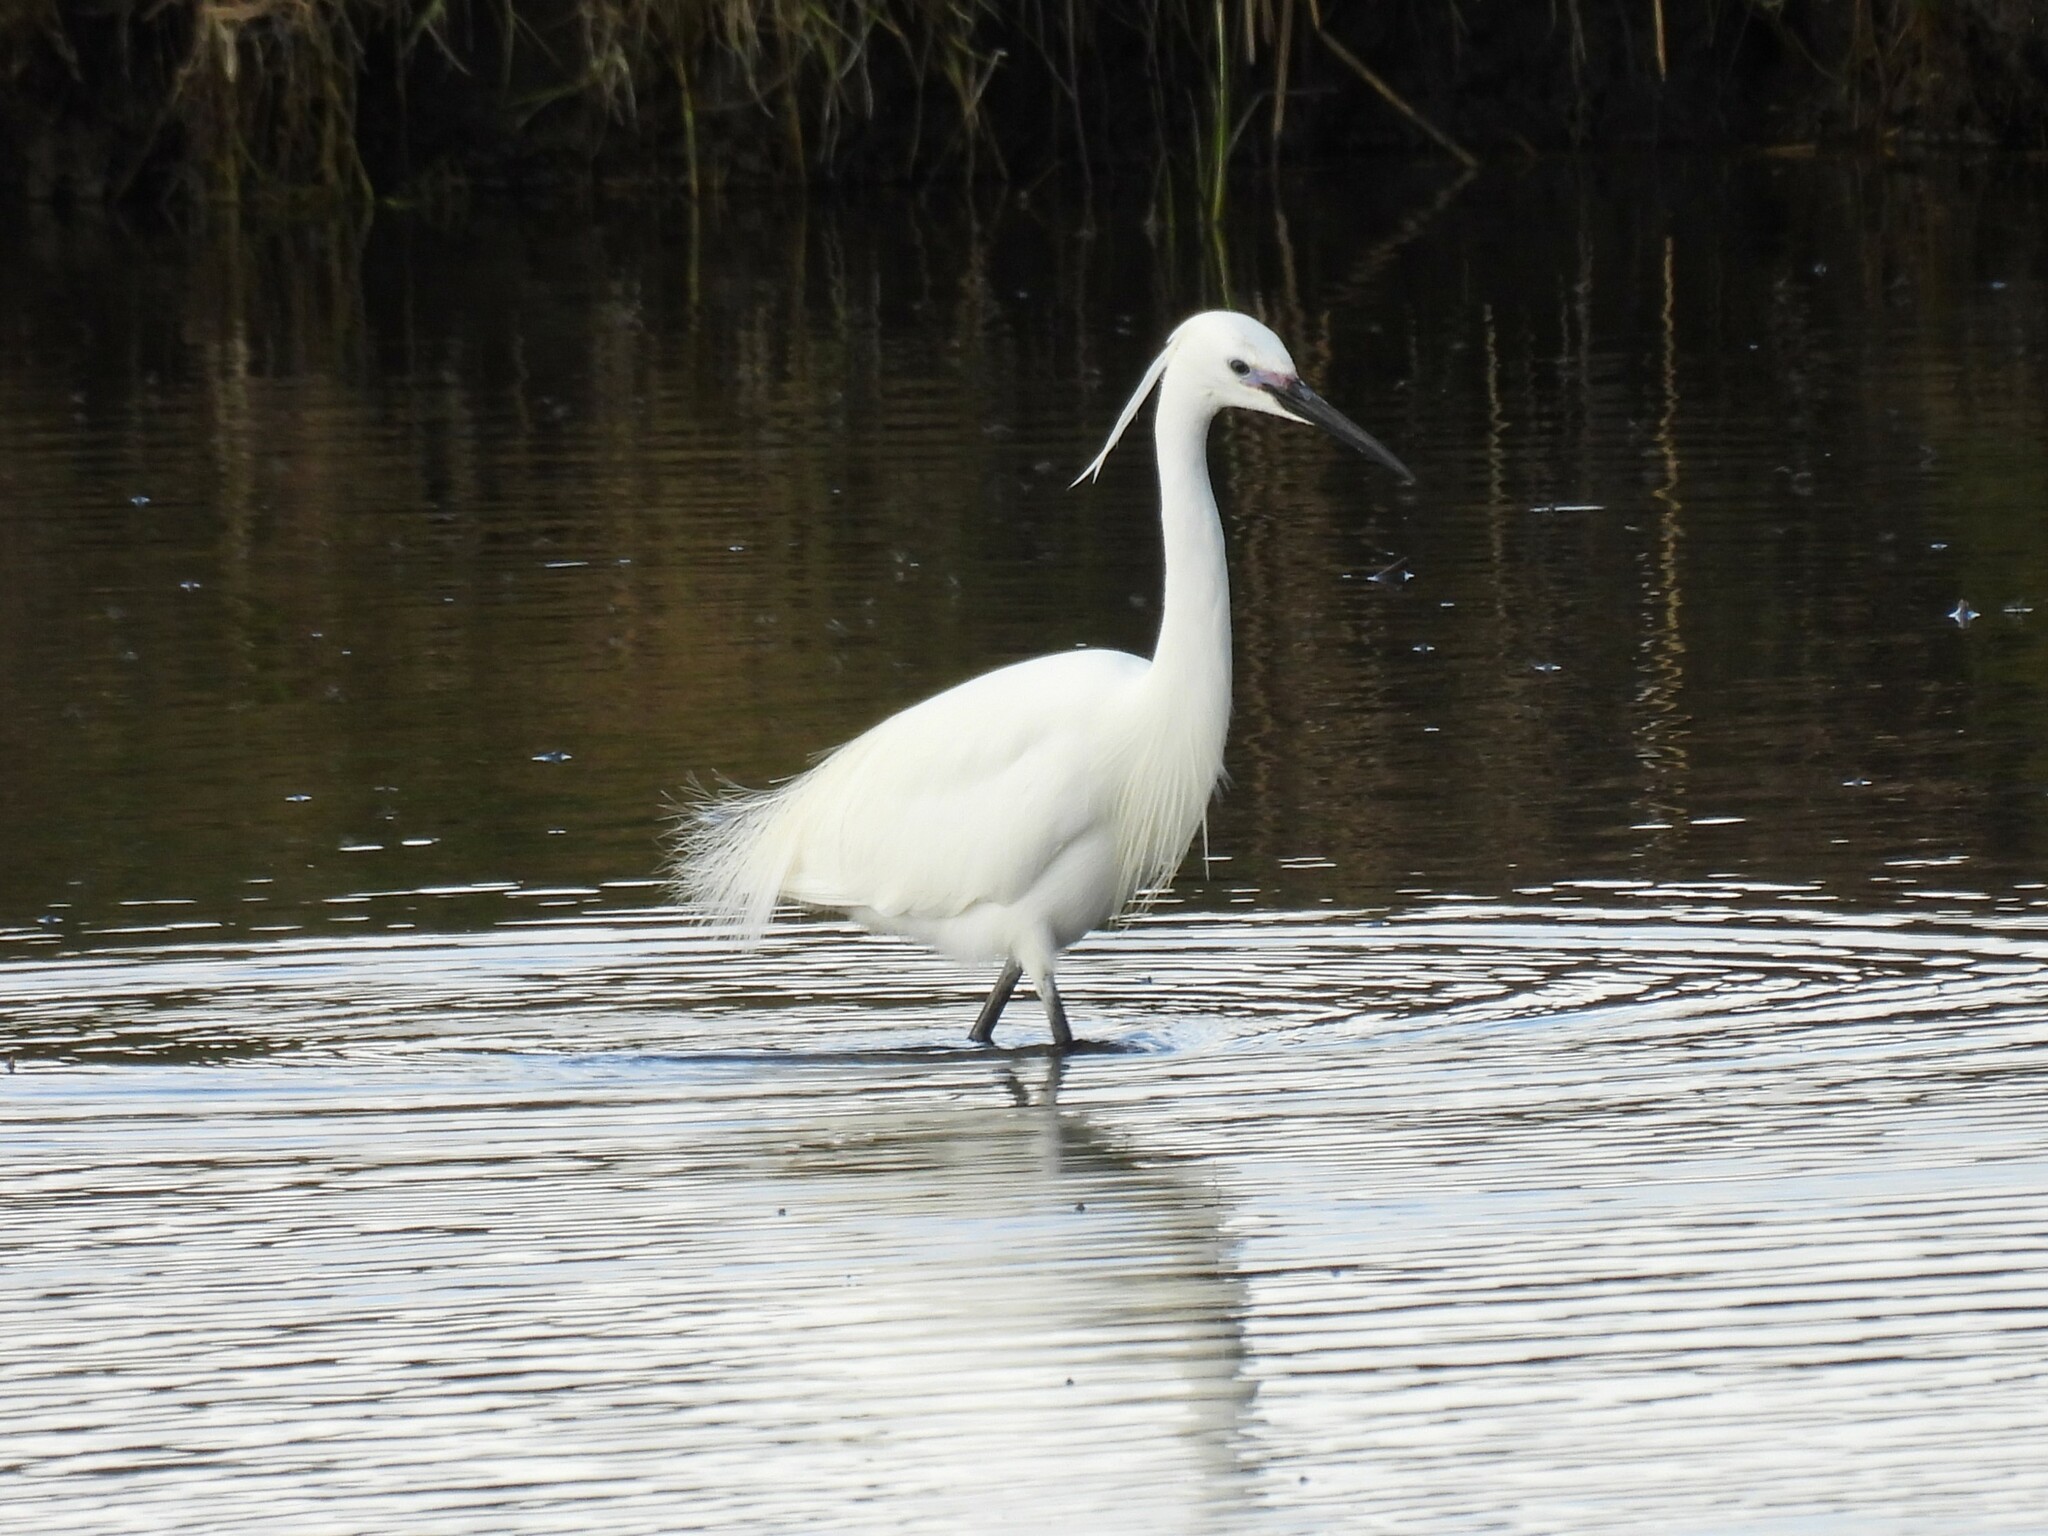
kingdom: Animalia
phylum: Chordata
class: Aves
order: Pelecaniformes
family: Ardeidae
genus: Egretta
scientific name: Egretta garzetta
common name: Little egret
